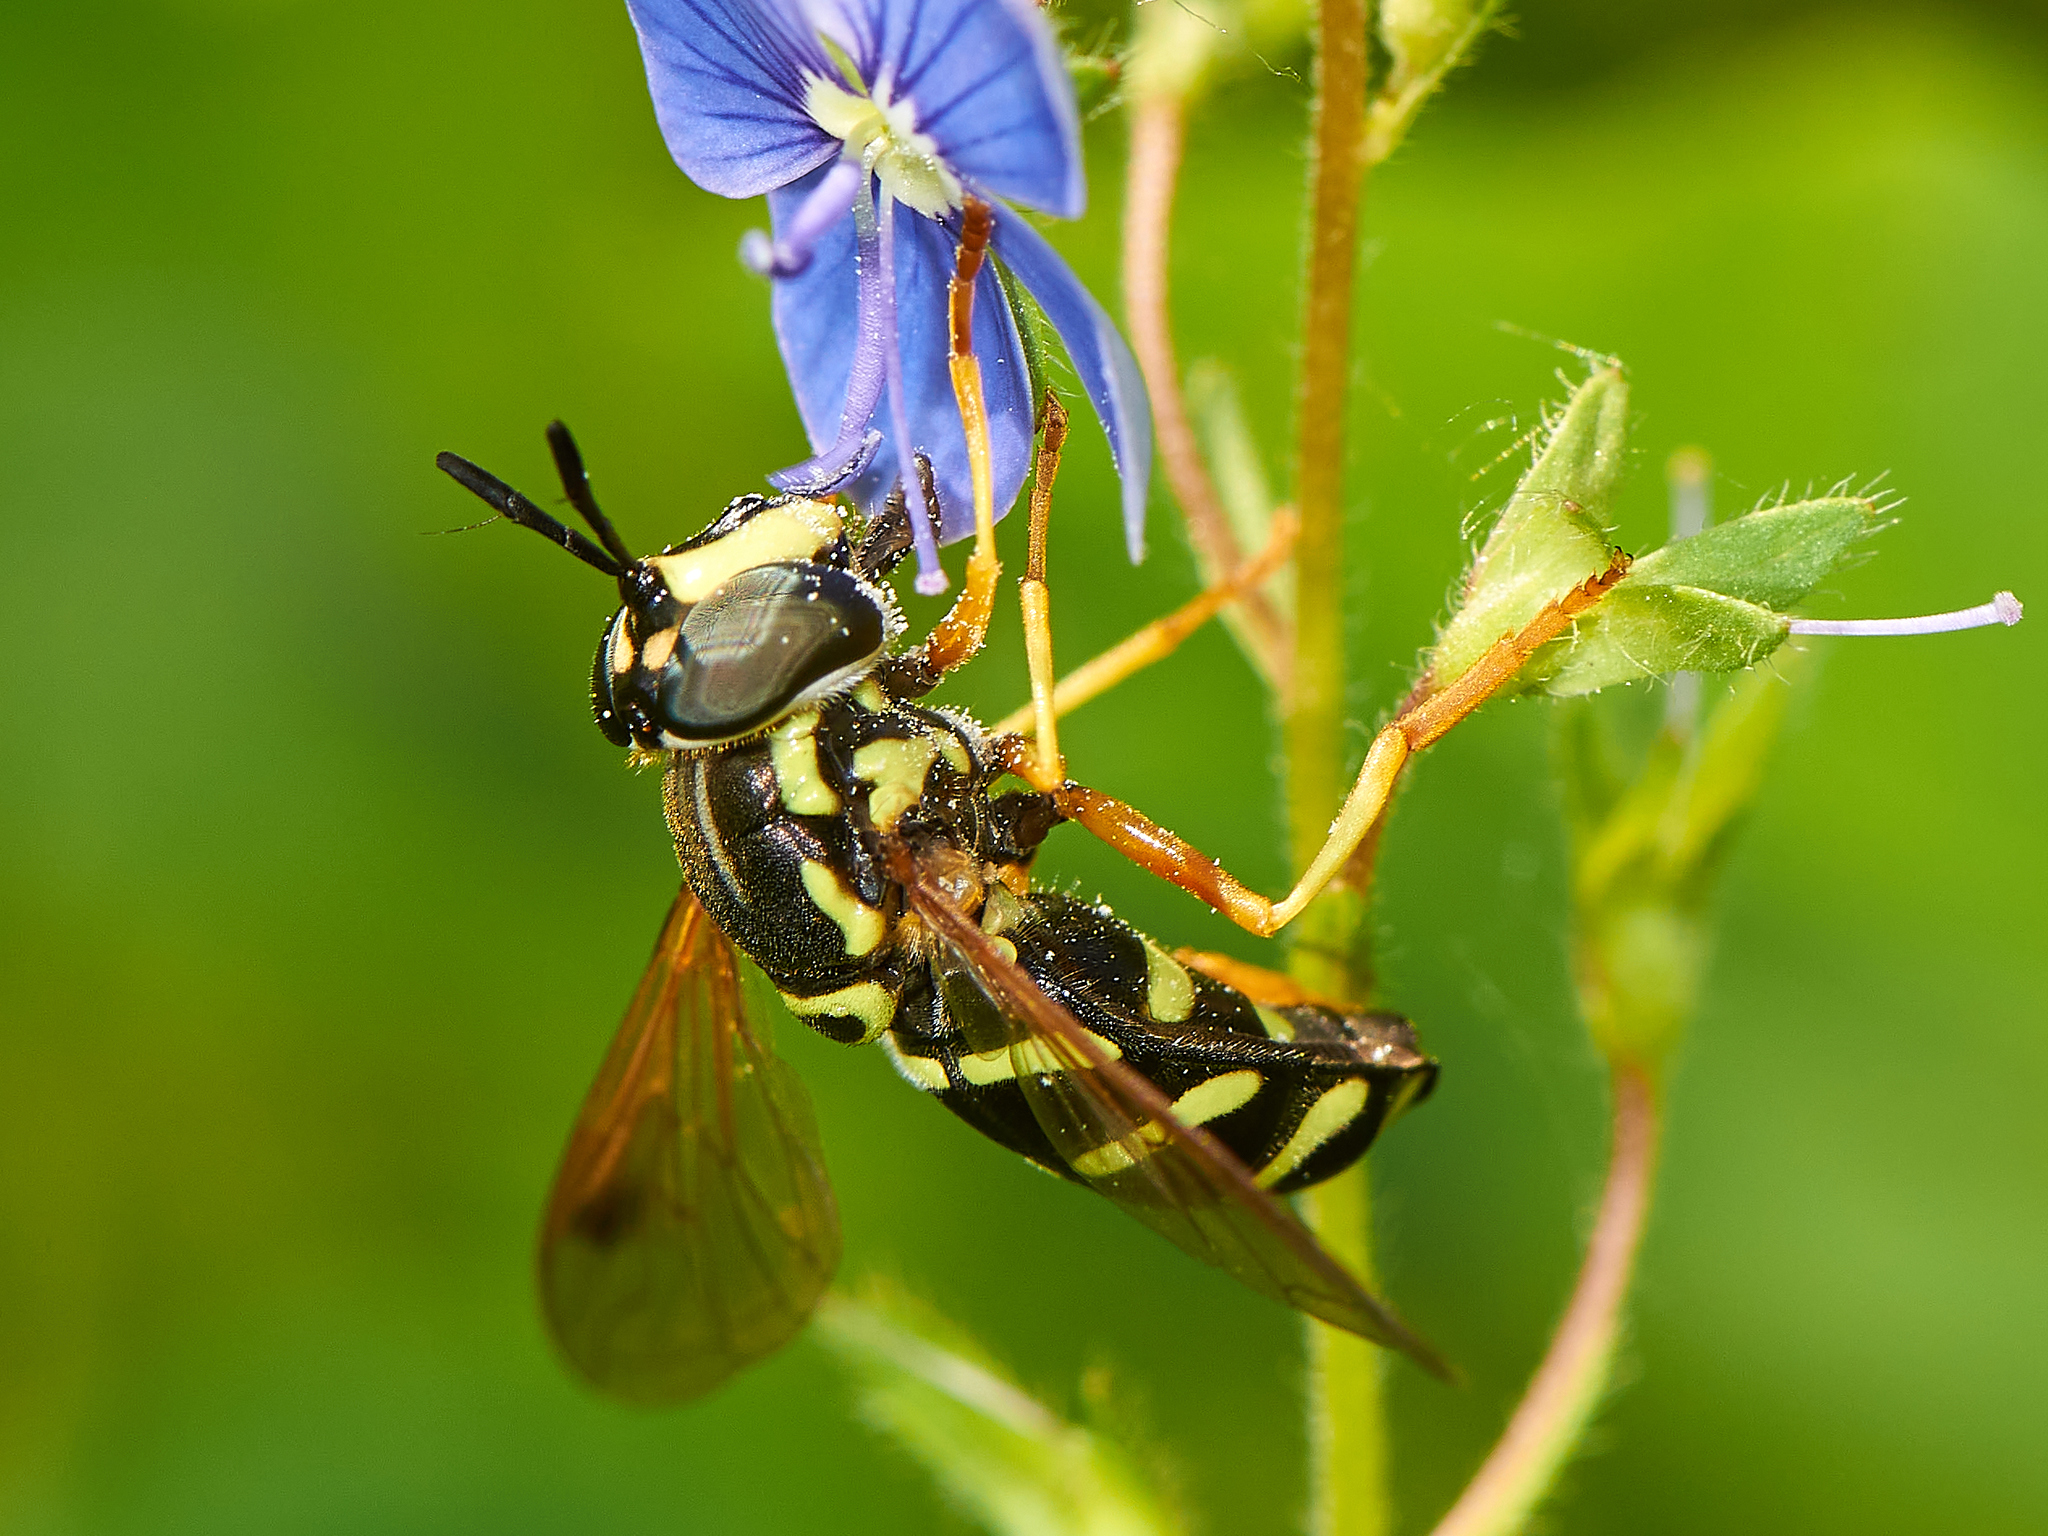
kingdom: Animalia
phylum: Arthropoda
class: Insecta
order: Diptera
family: Syrphidae
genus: Chrysotoxum
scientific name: Chrysotoxum festivum
